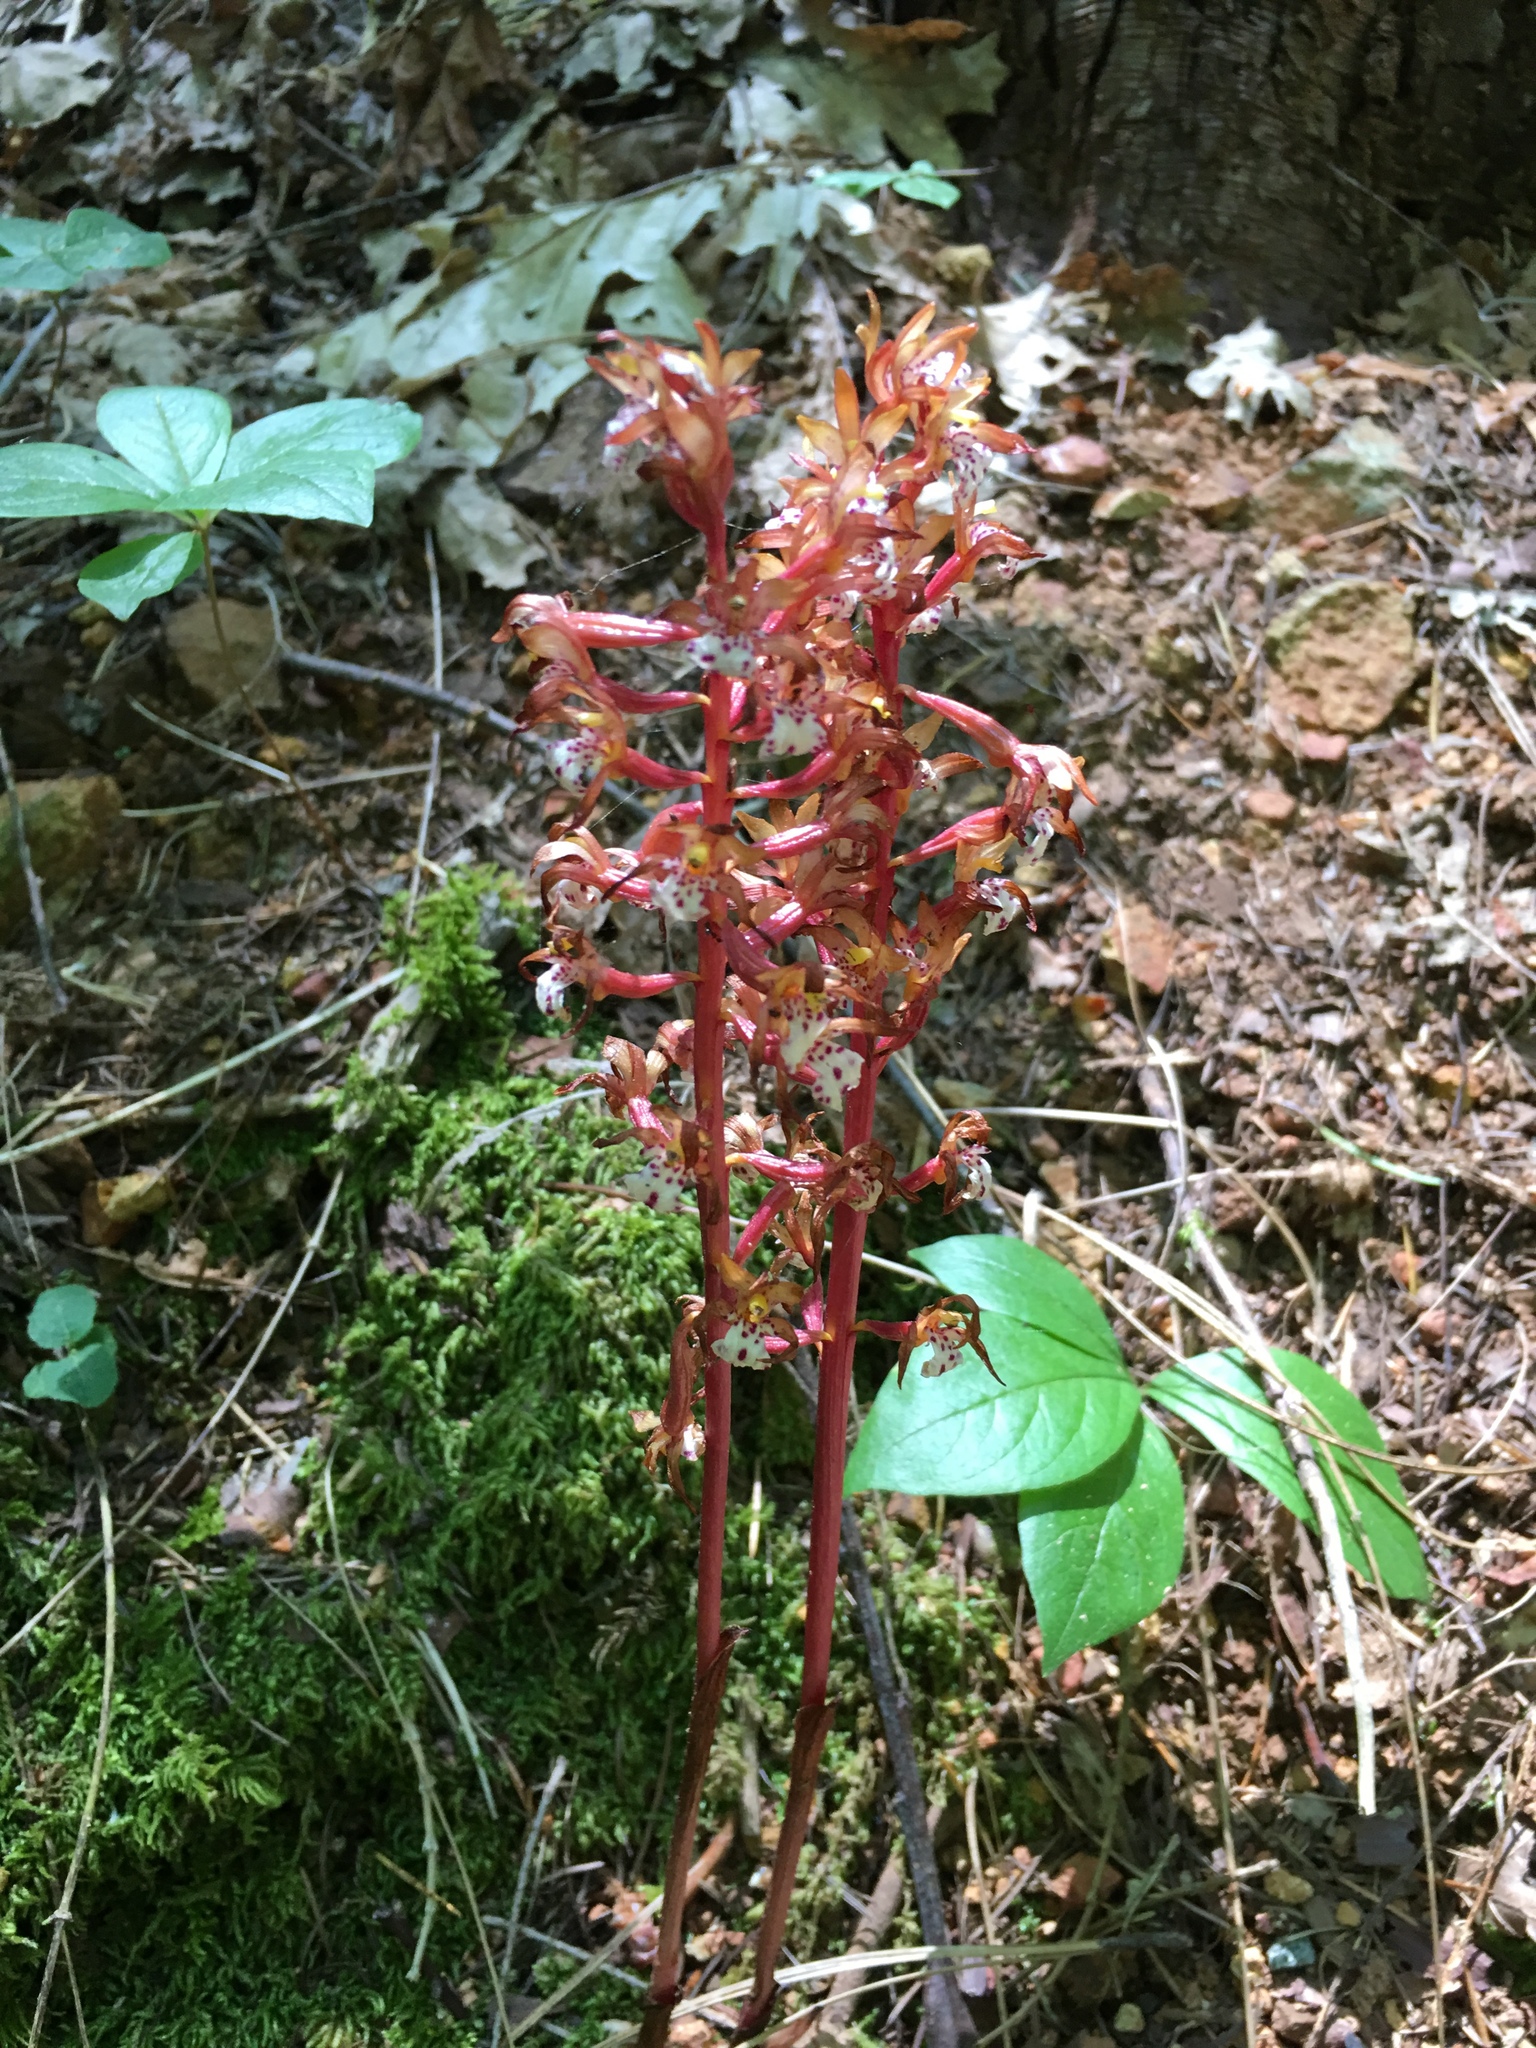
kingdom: Plantae
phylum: Tracheophyta
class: Liliopsida
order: Asparagales
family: Orchidaceae
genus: Corallorhiza
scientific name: Corallorhiza maculata
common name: Spotted coralroot
